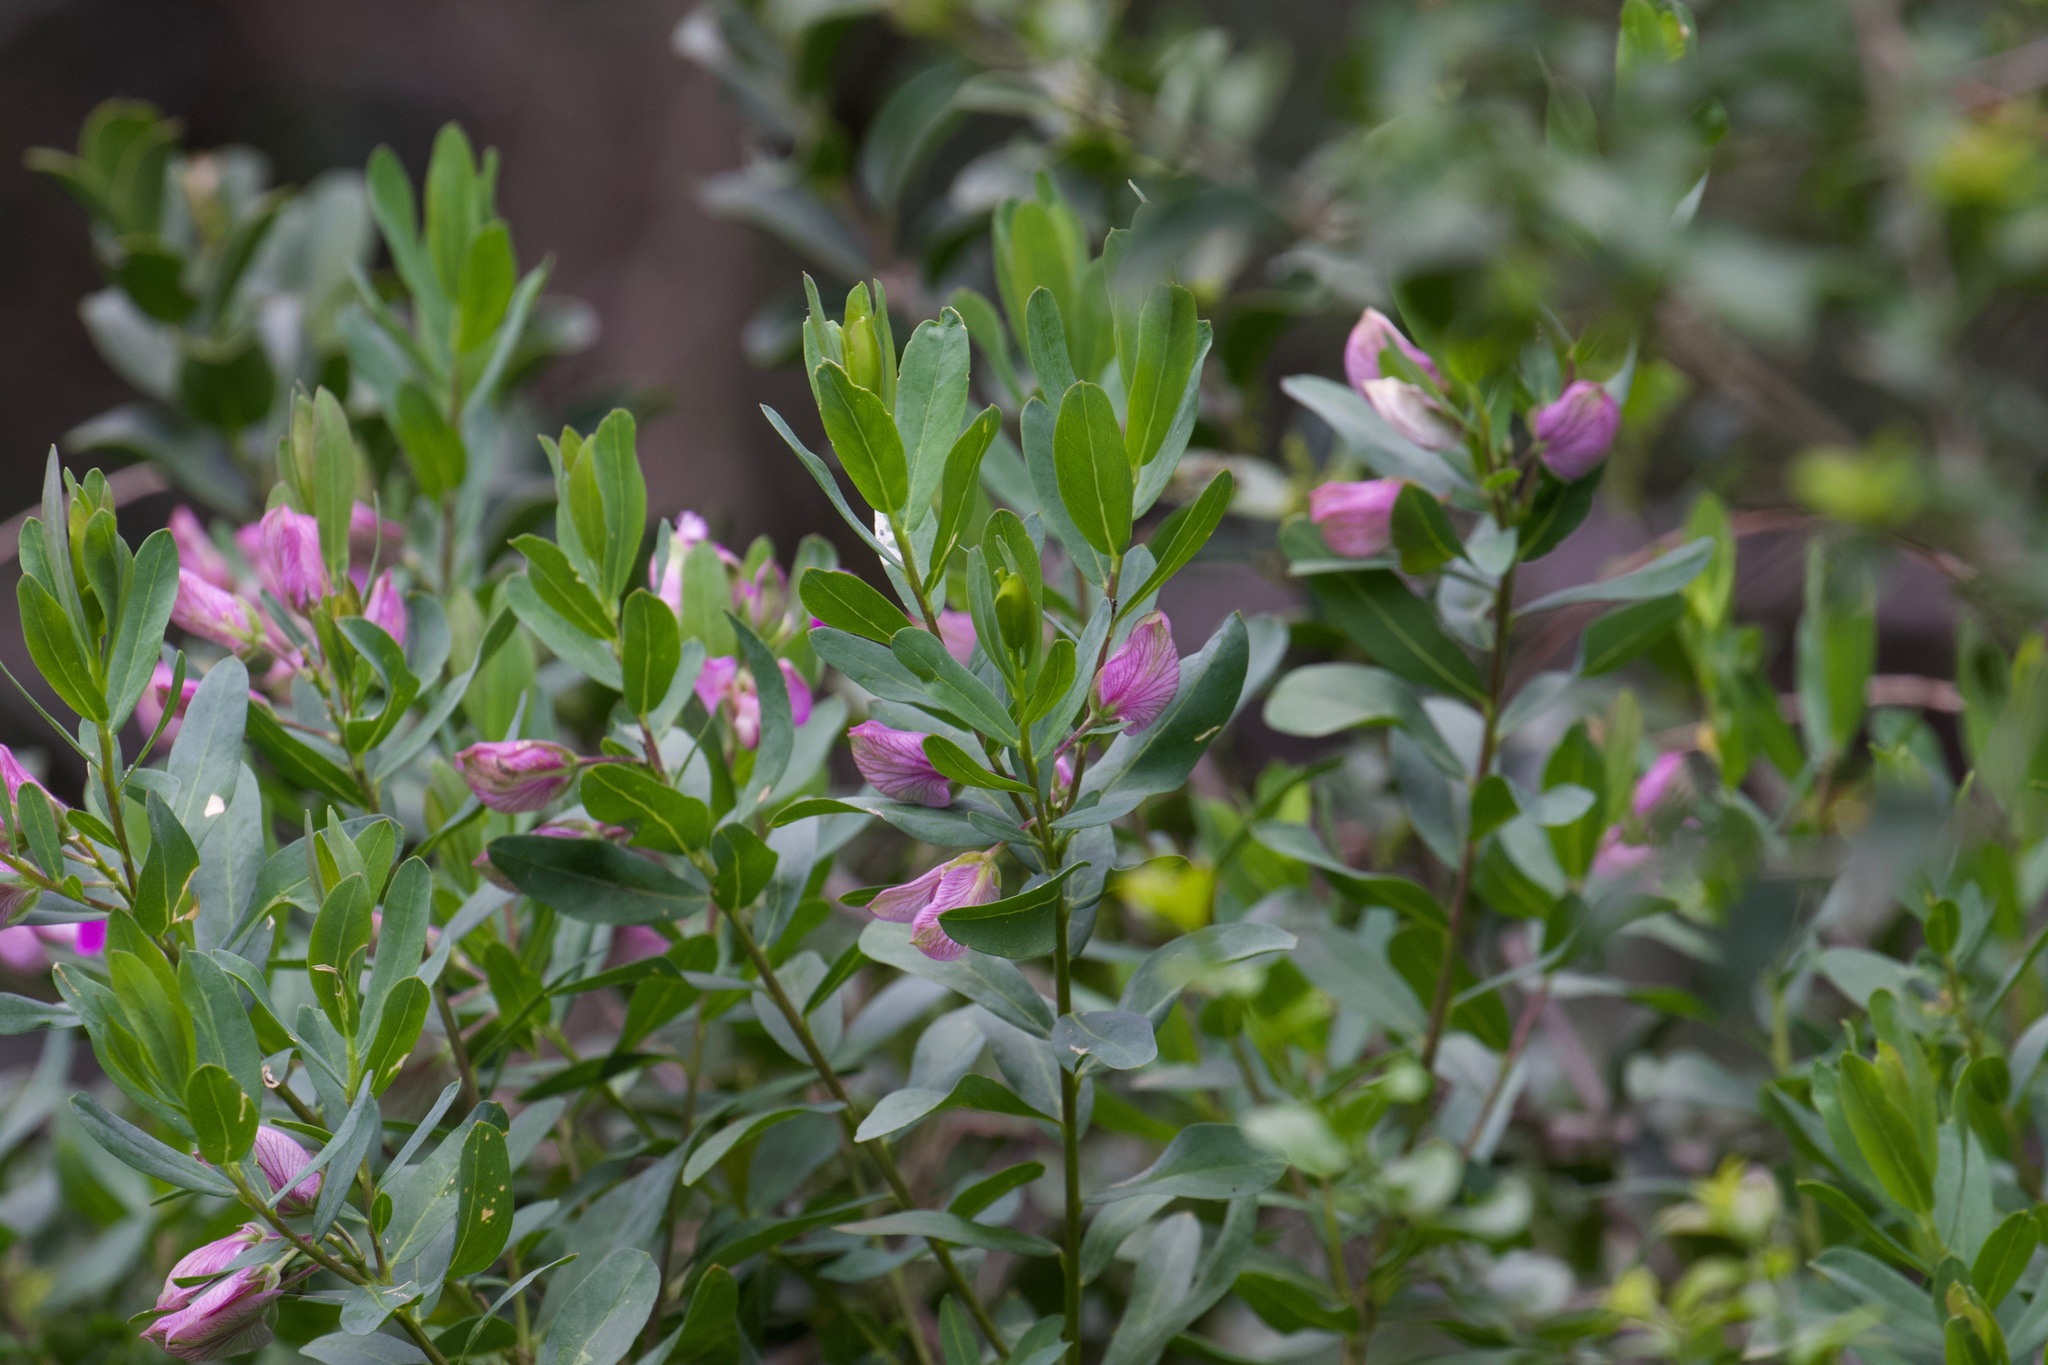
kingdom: Plantae
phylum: Tracheophyta
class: Magnoliopsida
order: Fabales
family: Polygalaceae
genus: Polygala
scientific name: Polygala myrtifolia
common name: Myrtle-leaf milkwort
